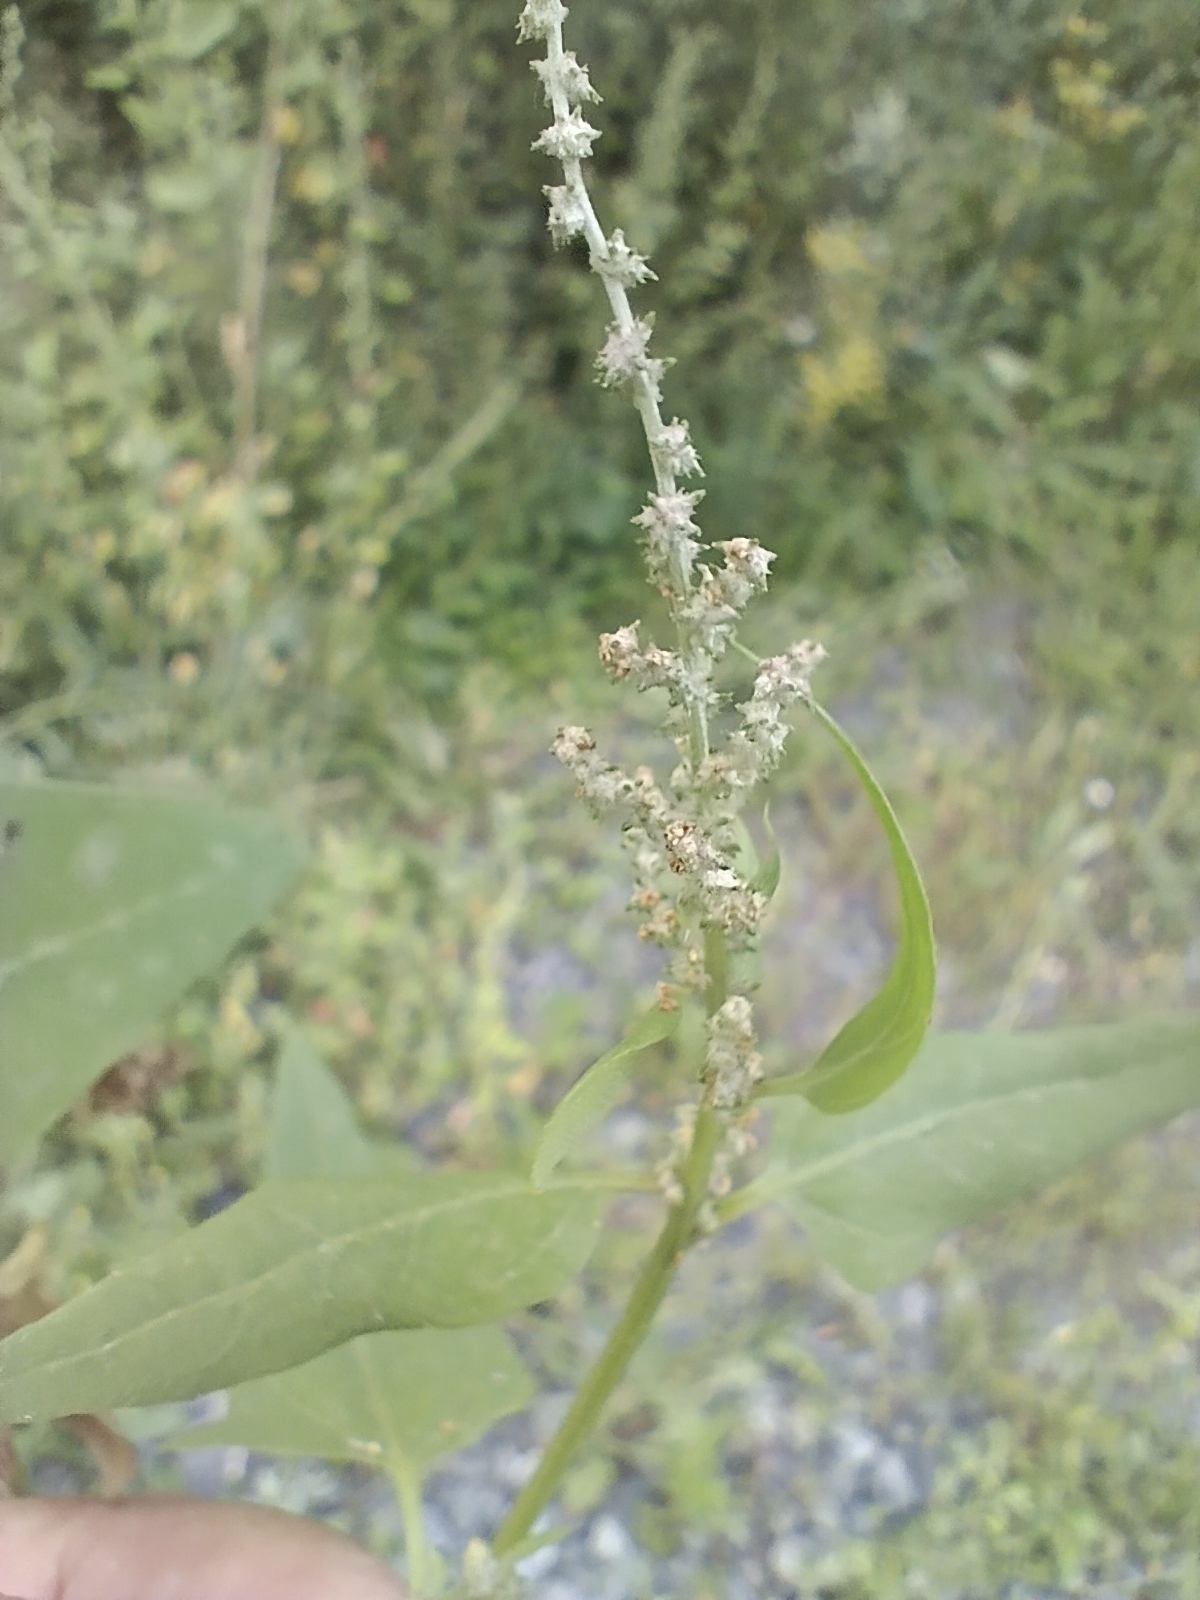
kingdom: Plantae
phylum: Tracheophyta
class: Magnoliopsida
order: Caryophyllales
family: Amaranthaceae
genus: Atriplex
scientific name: Atriplex prostrata
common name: Spear-leaved orache
